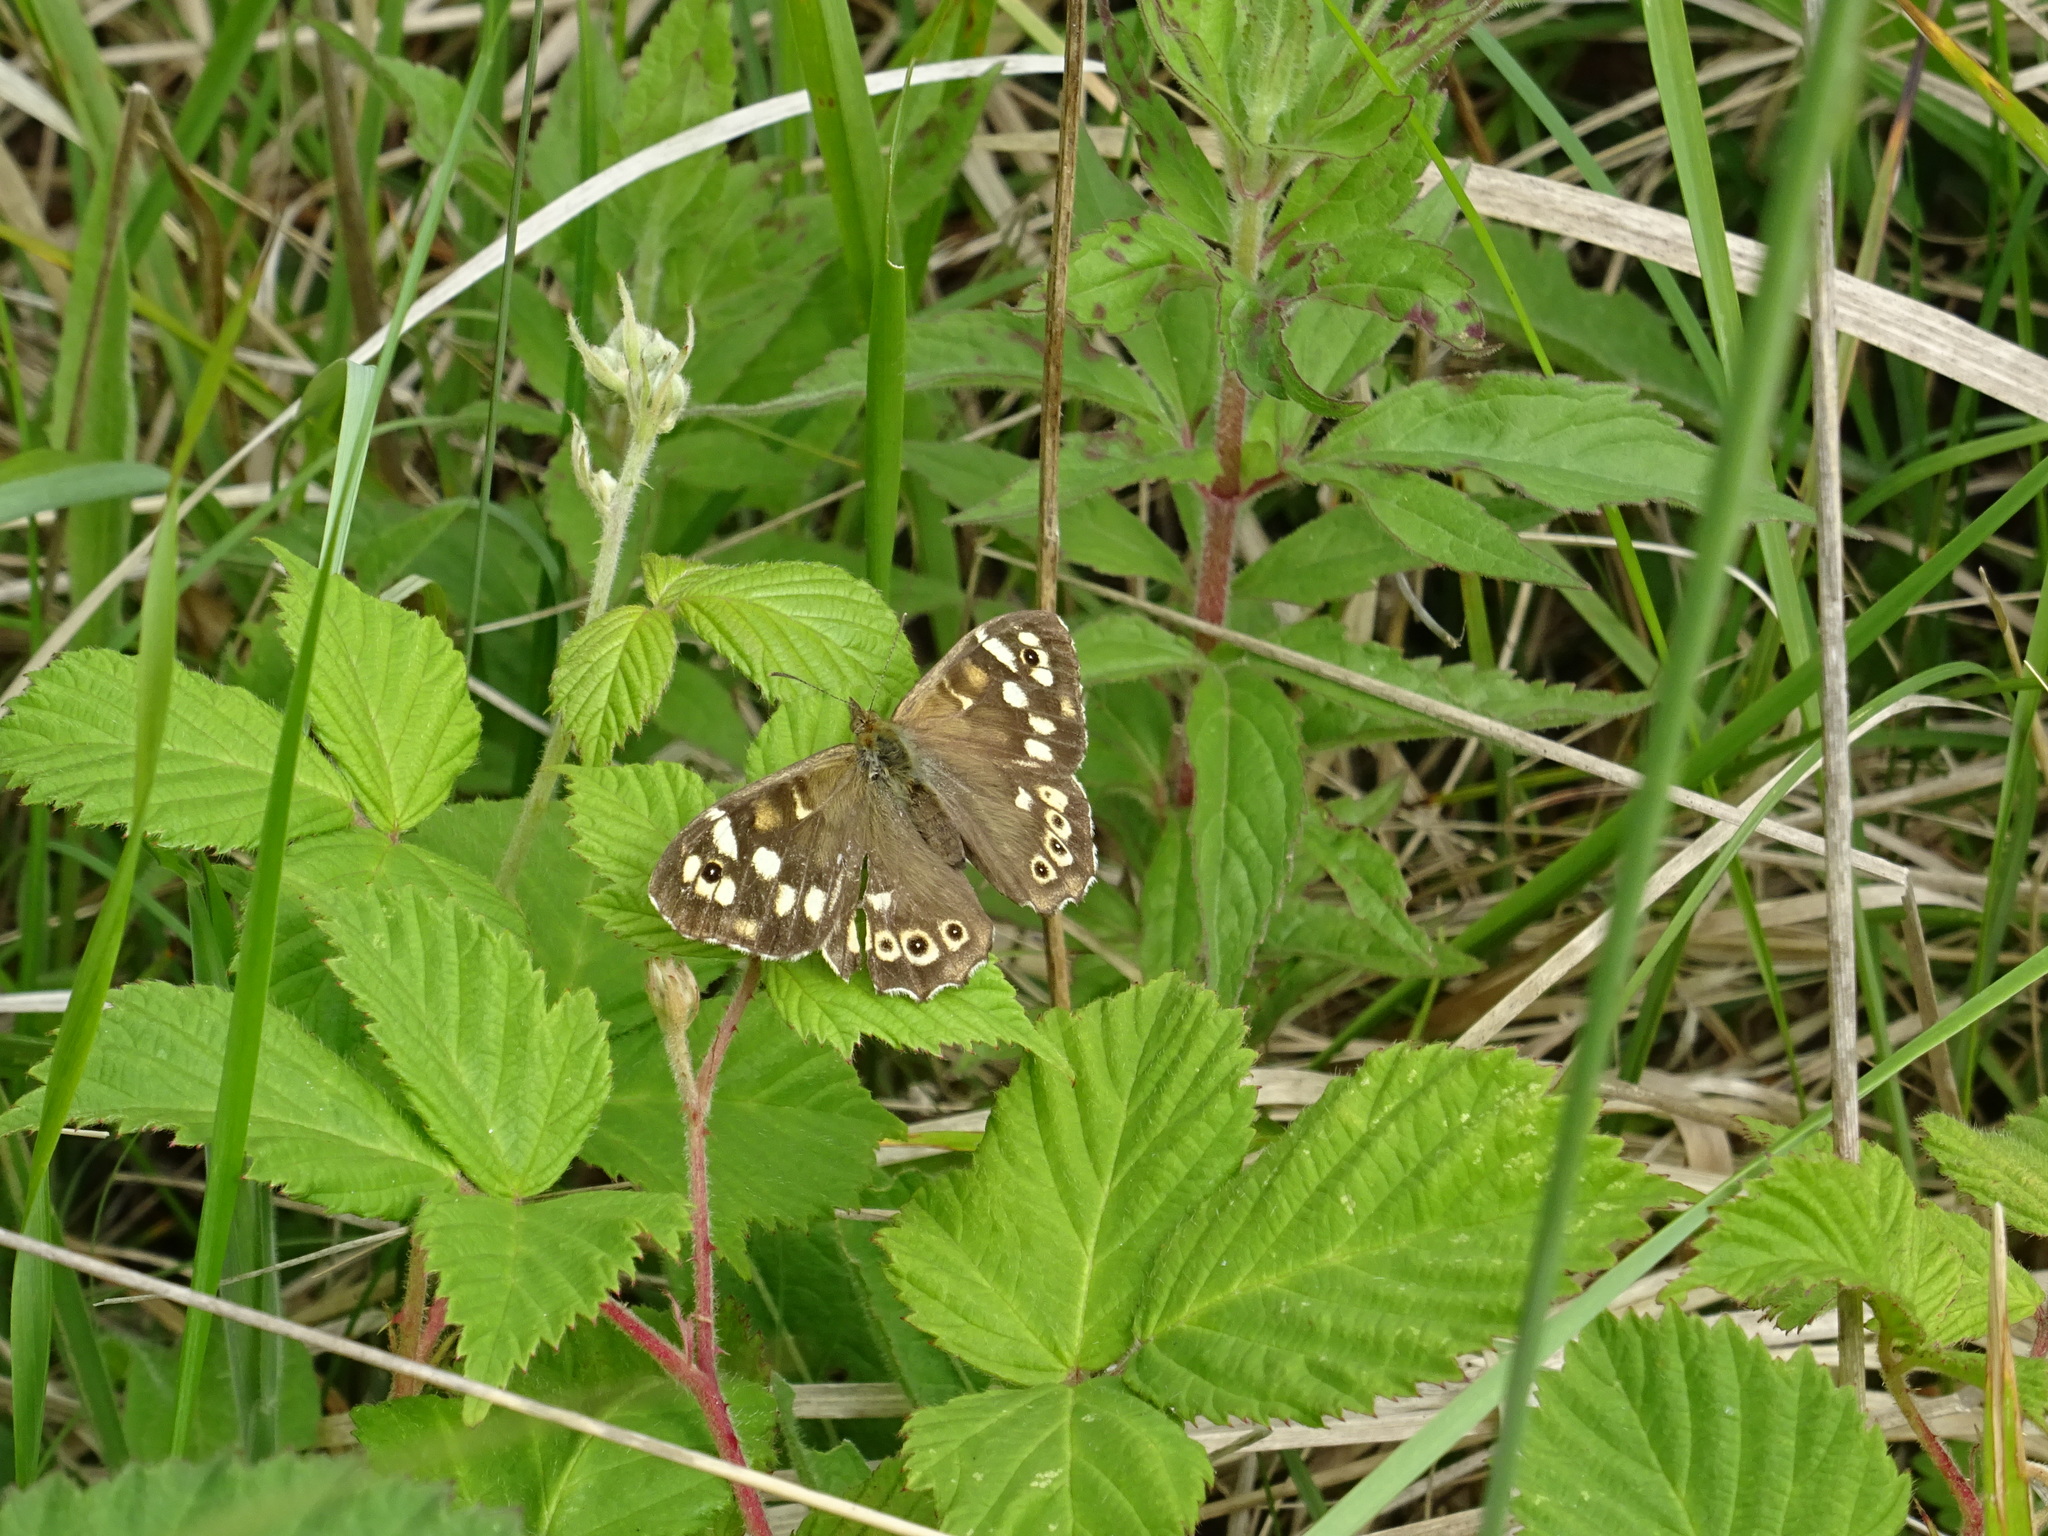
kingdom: Animalia
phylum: Arthropoda
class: Insecta
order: Lepidoptera
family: Nymphalidae
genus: Pararge
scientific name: Pararge aegeria
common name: Speckled wood
